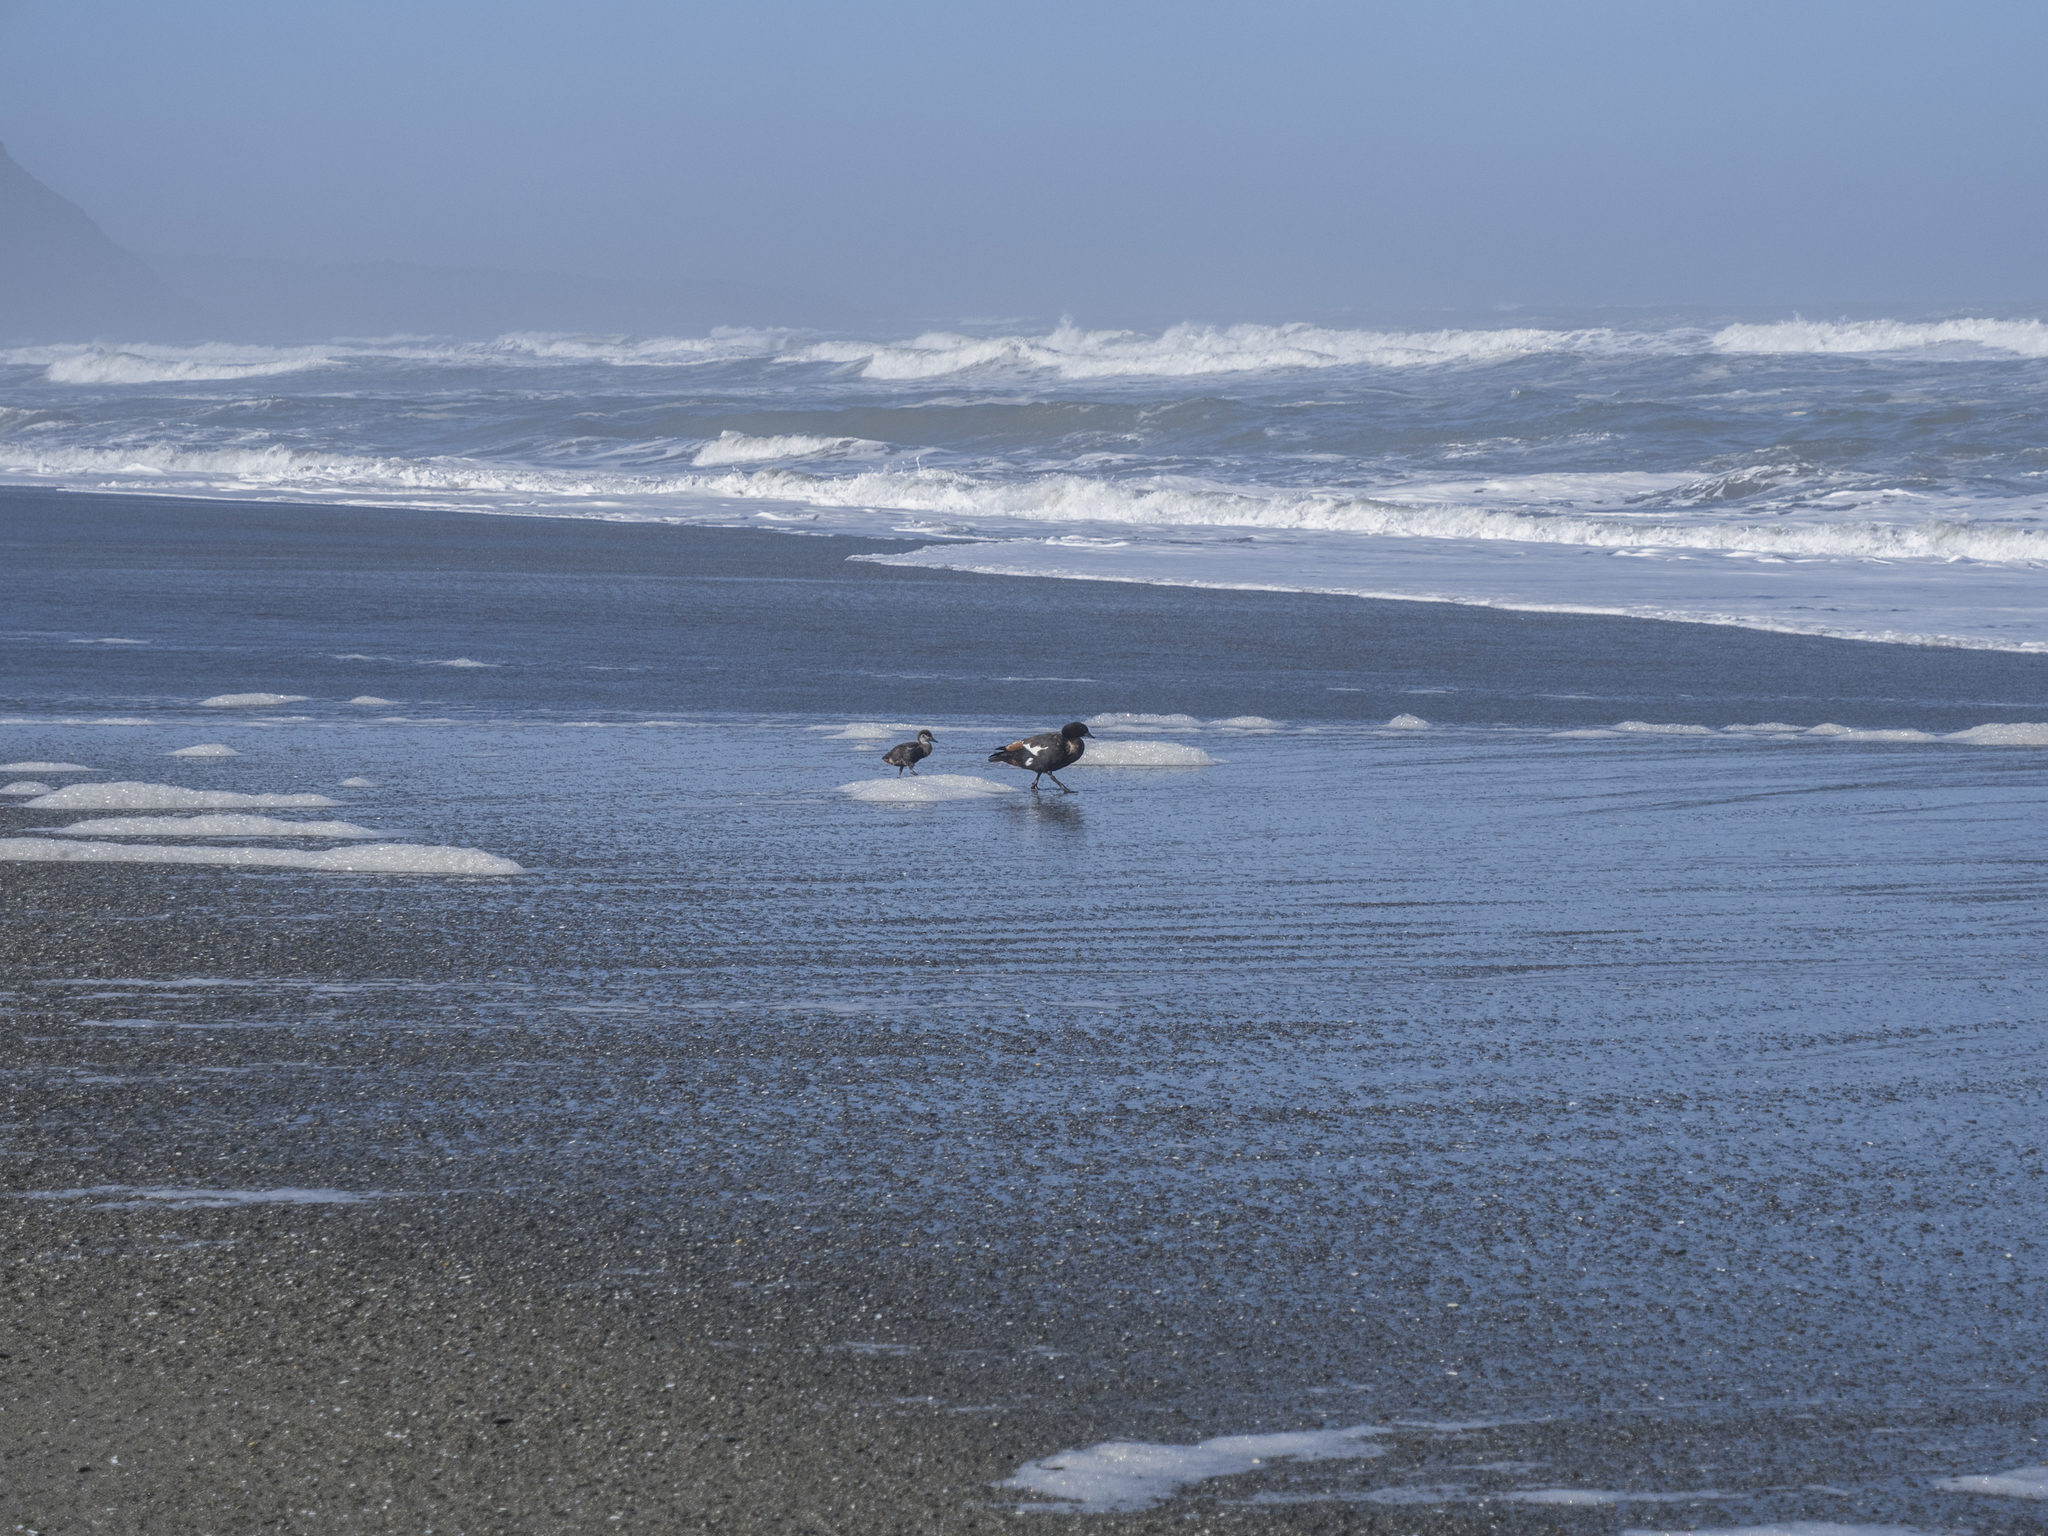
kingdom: Animalia
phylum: Chordata
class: Aves
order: Anseriformes
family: Anatidae
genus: Tadorna
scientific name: Tadorna variegata
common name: Paradise shelduck
